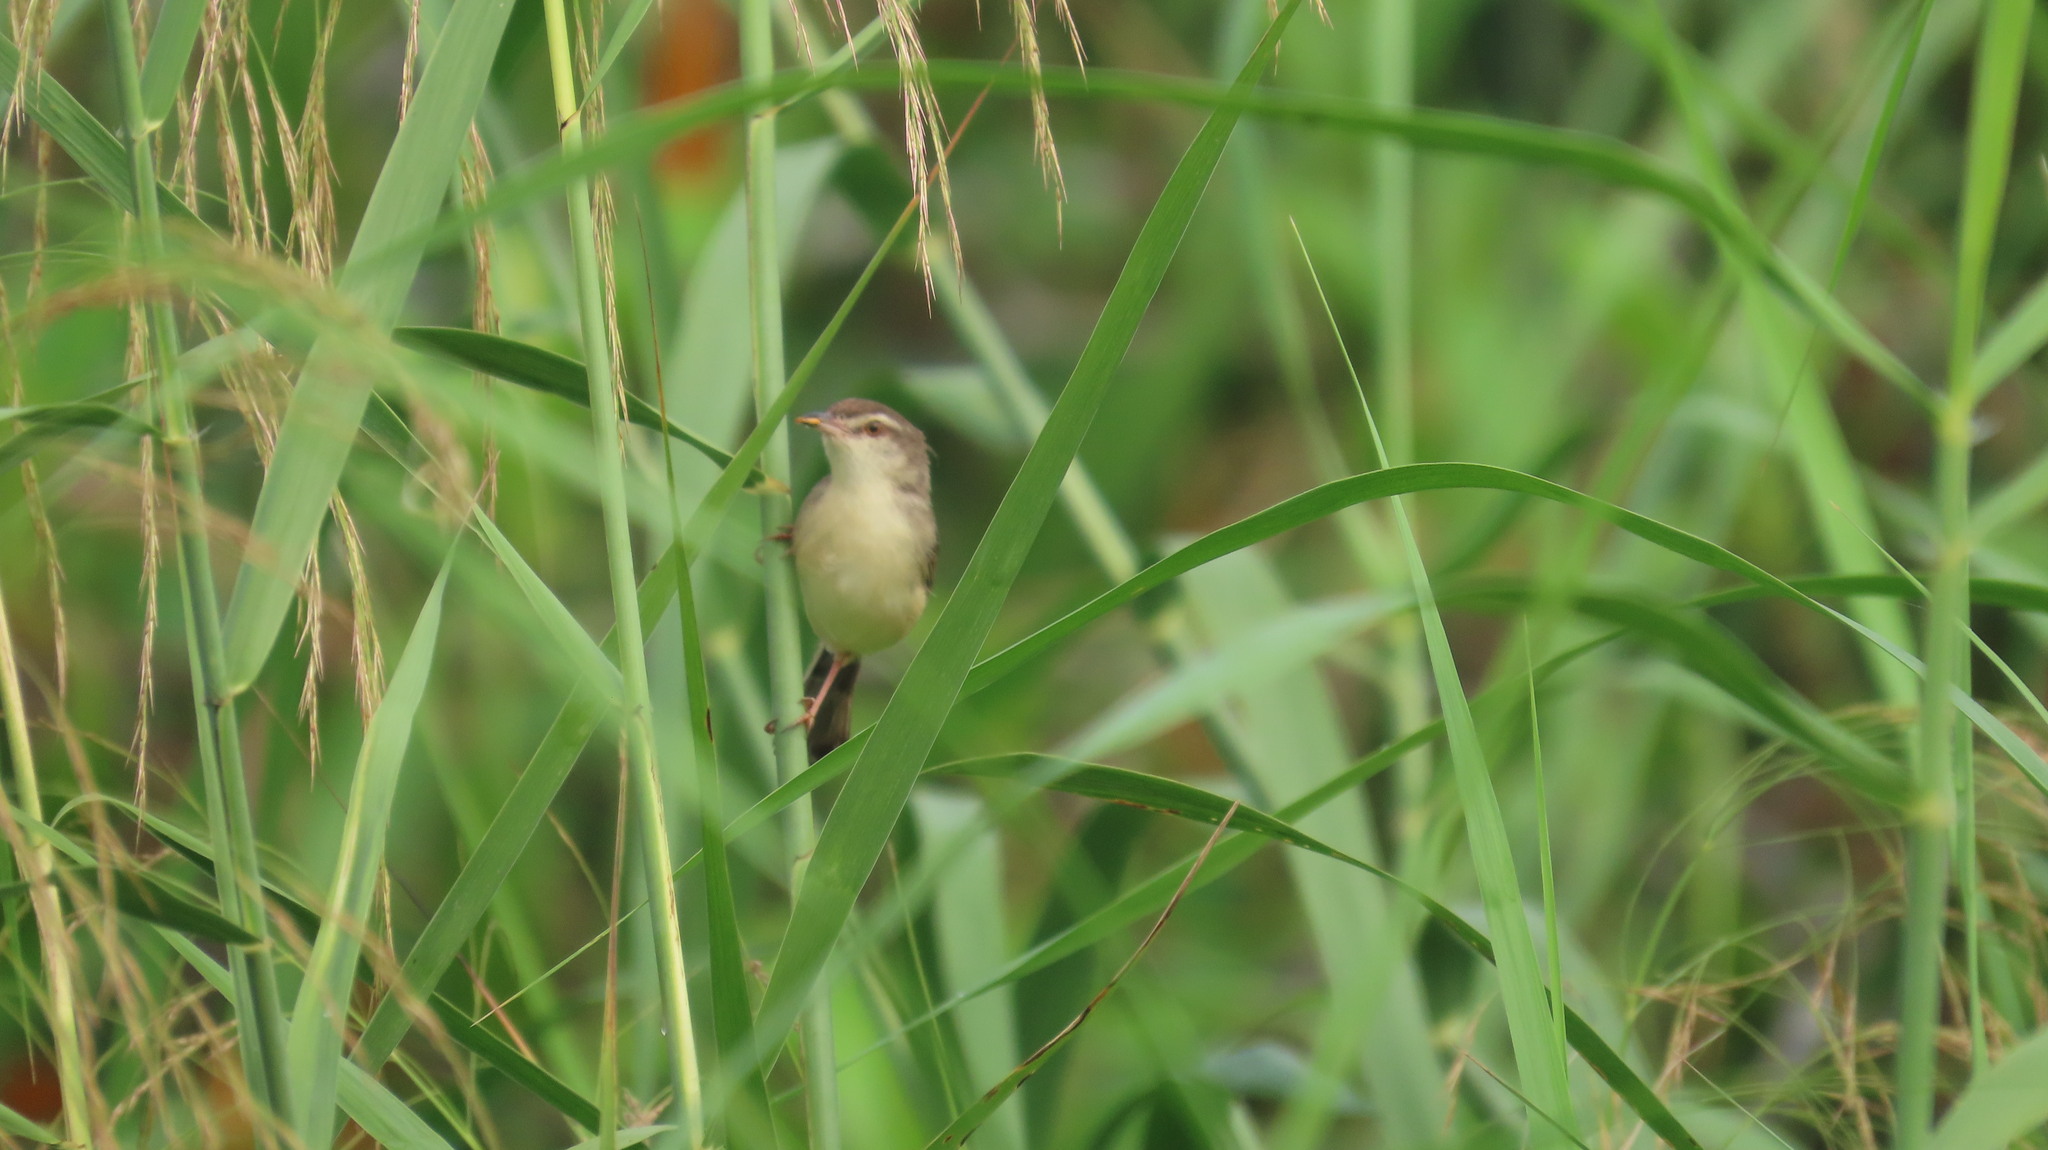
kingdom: Animalia
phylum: Chordata
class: Aves
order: Passeriformes
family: Cisticolidae
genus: Prinia
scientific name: Prinia inornata
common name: Plain prinia
